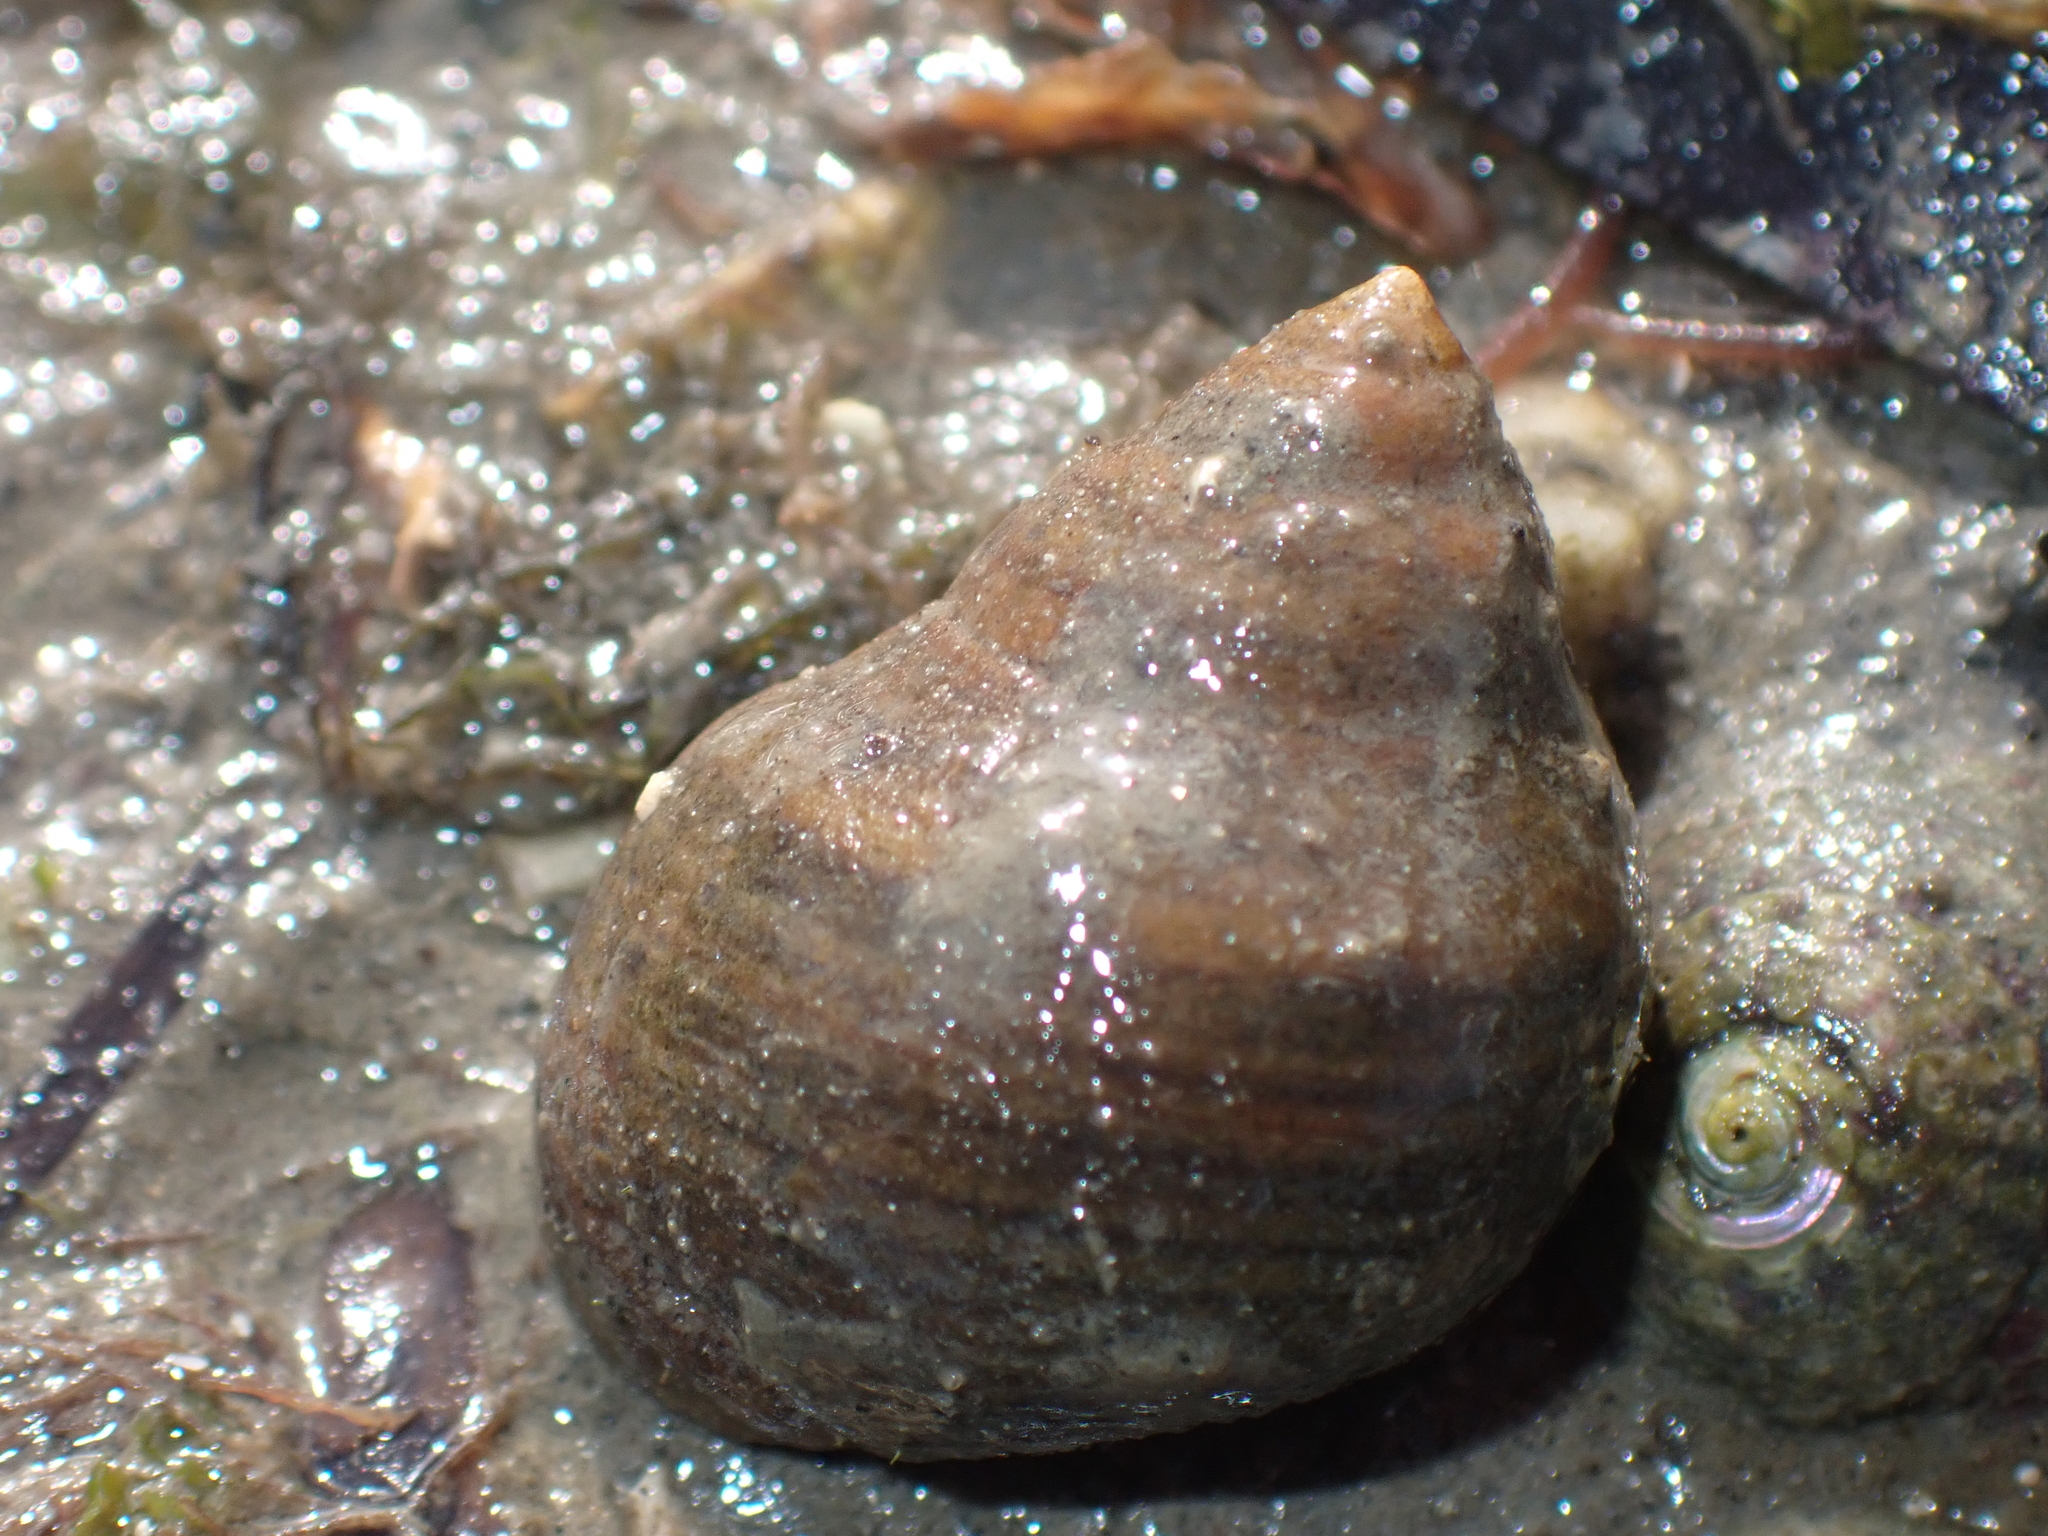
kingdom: Animalia
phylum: Mollusca
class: Gastropoda
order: Littorinimorpha
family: Littorinidae
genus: Littorina
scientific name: Littorina littorea
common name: Common periwinkle
